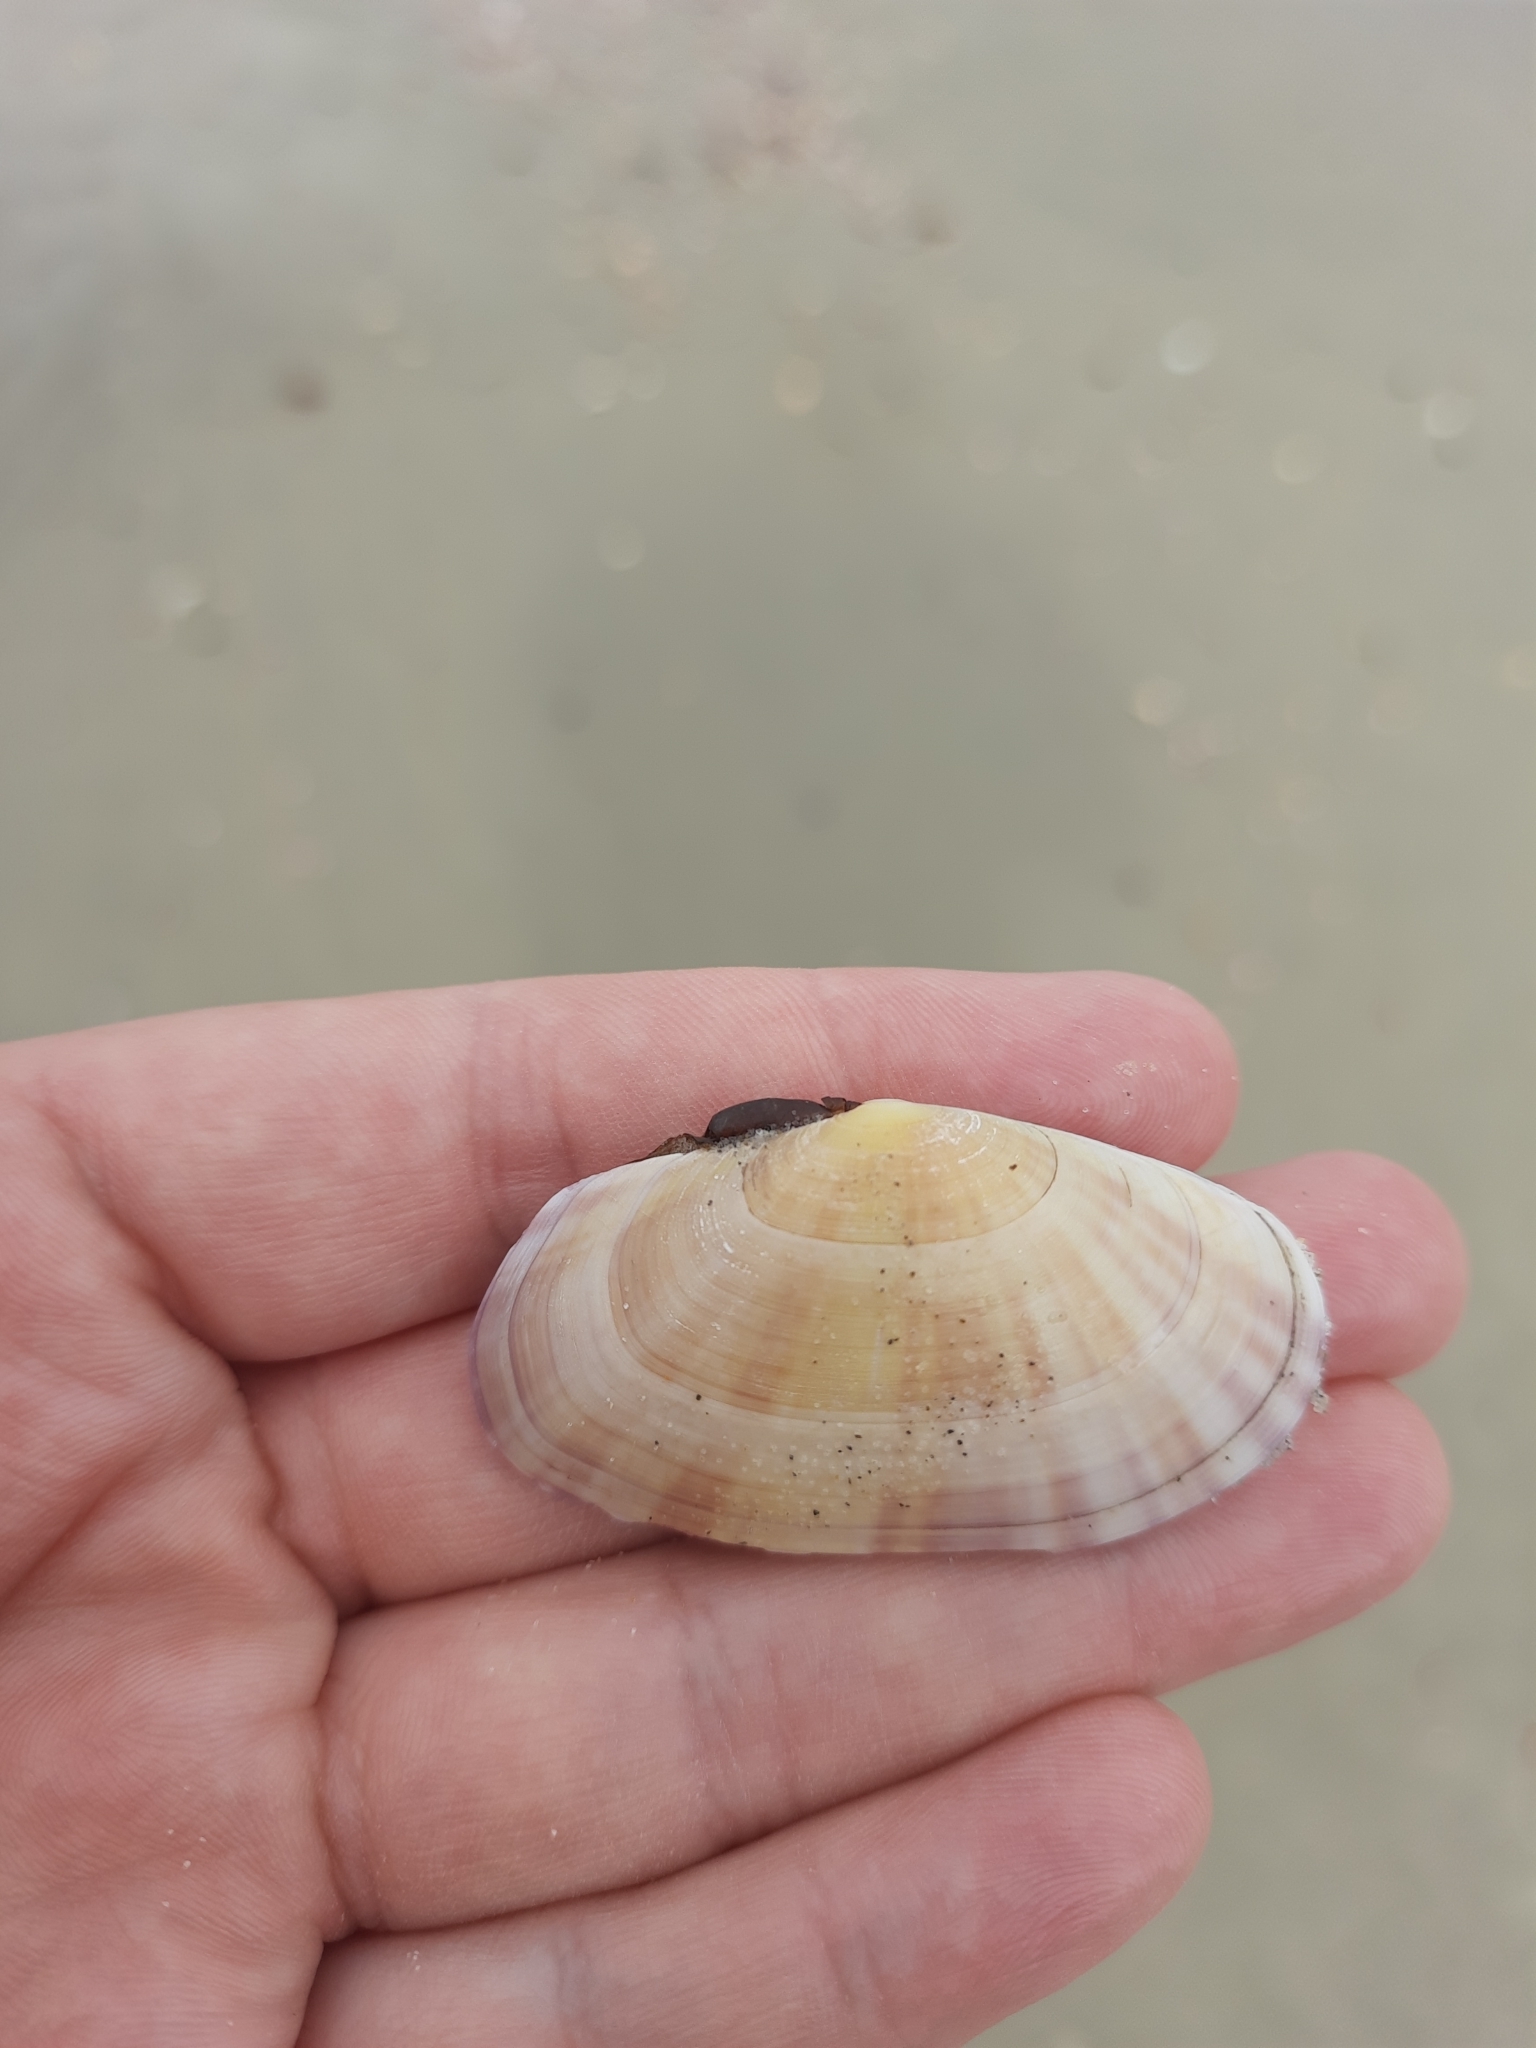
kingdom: Animalia
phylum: Mollusca
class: Bivalvia
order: Cardiida
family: Psammobiidae
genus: Gari
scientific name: Gari stangeri
